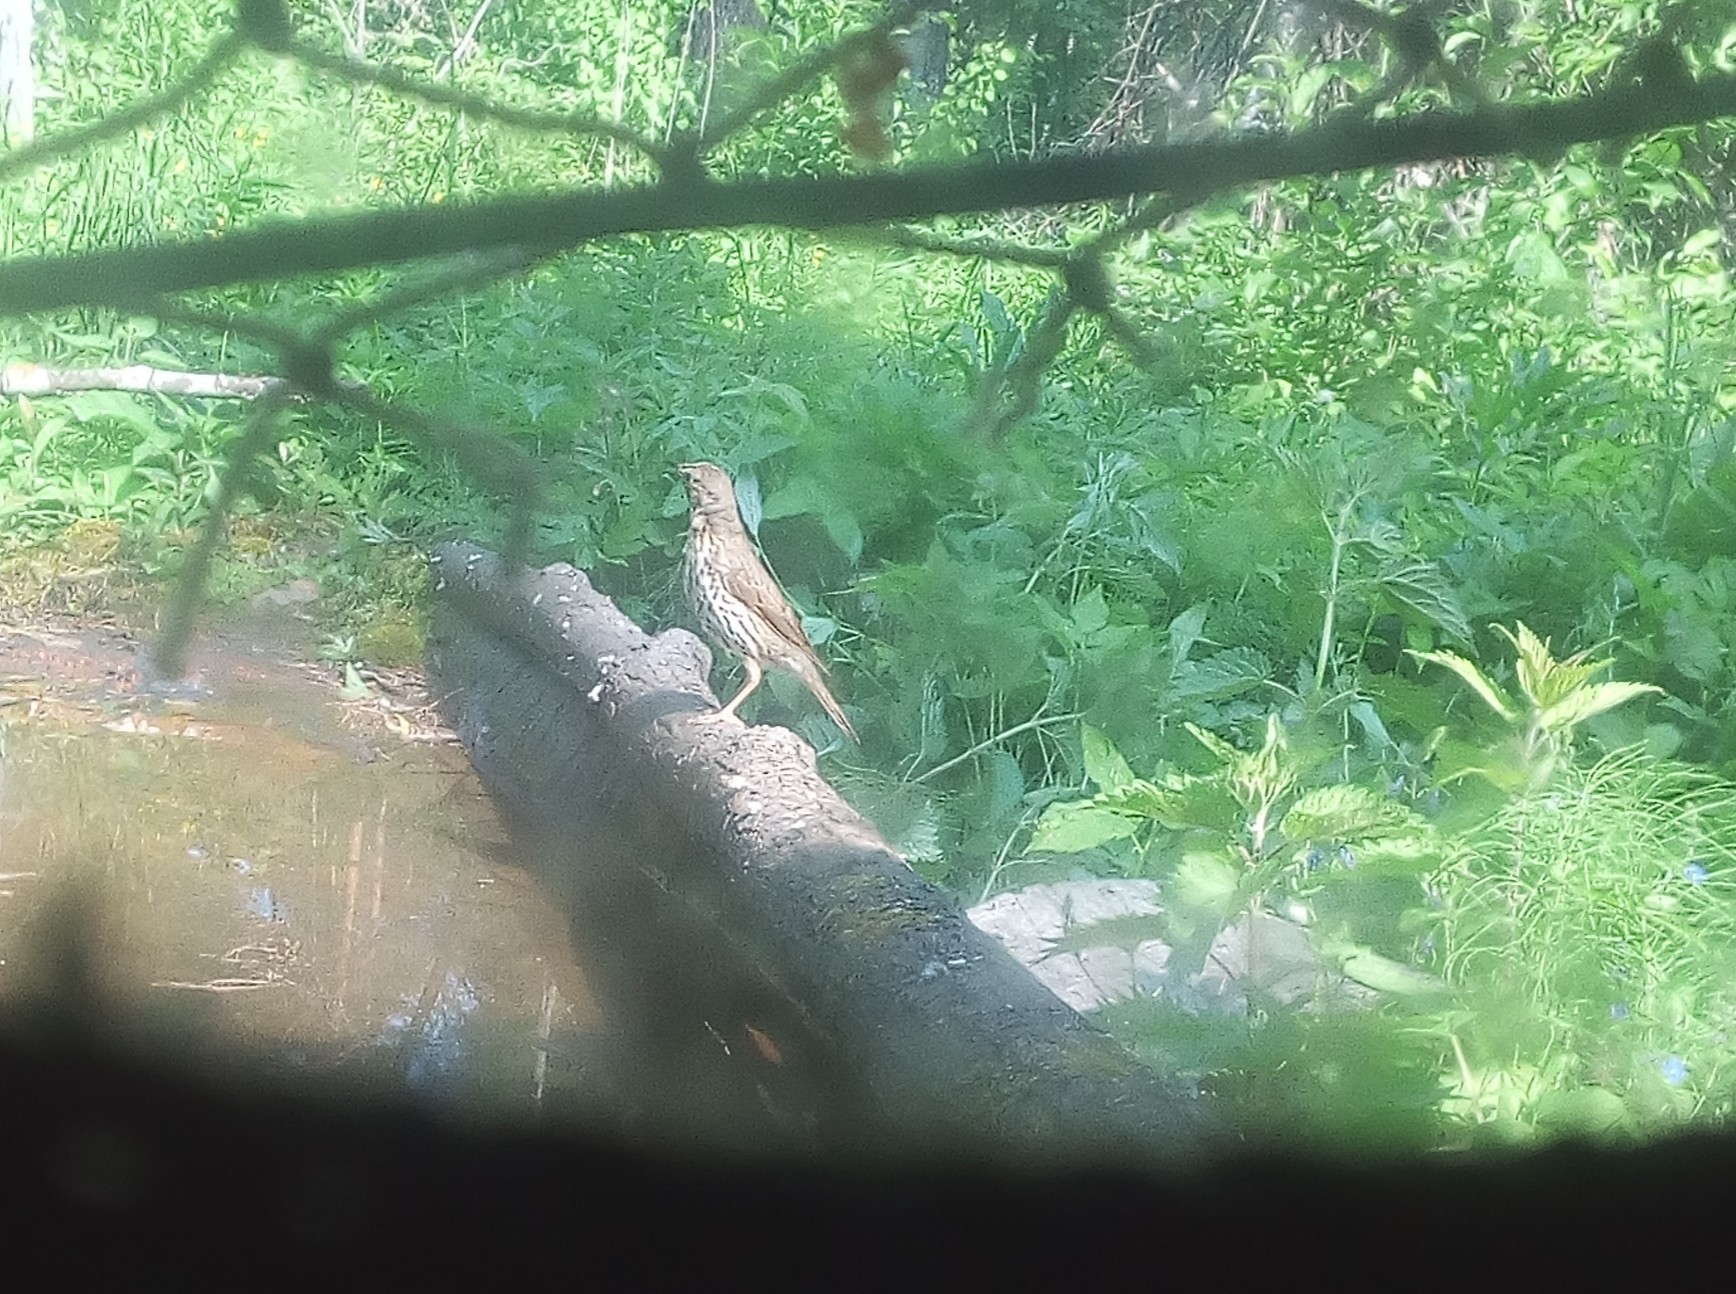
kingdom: Animalia
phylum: Chordata
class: Aves
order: Passeriformes
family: Turdidae
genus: Turdus
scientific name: Turdus philomelos
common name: Song thrush
